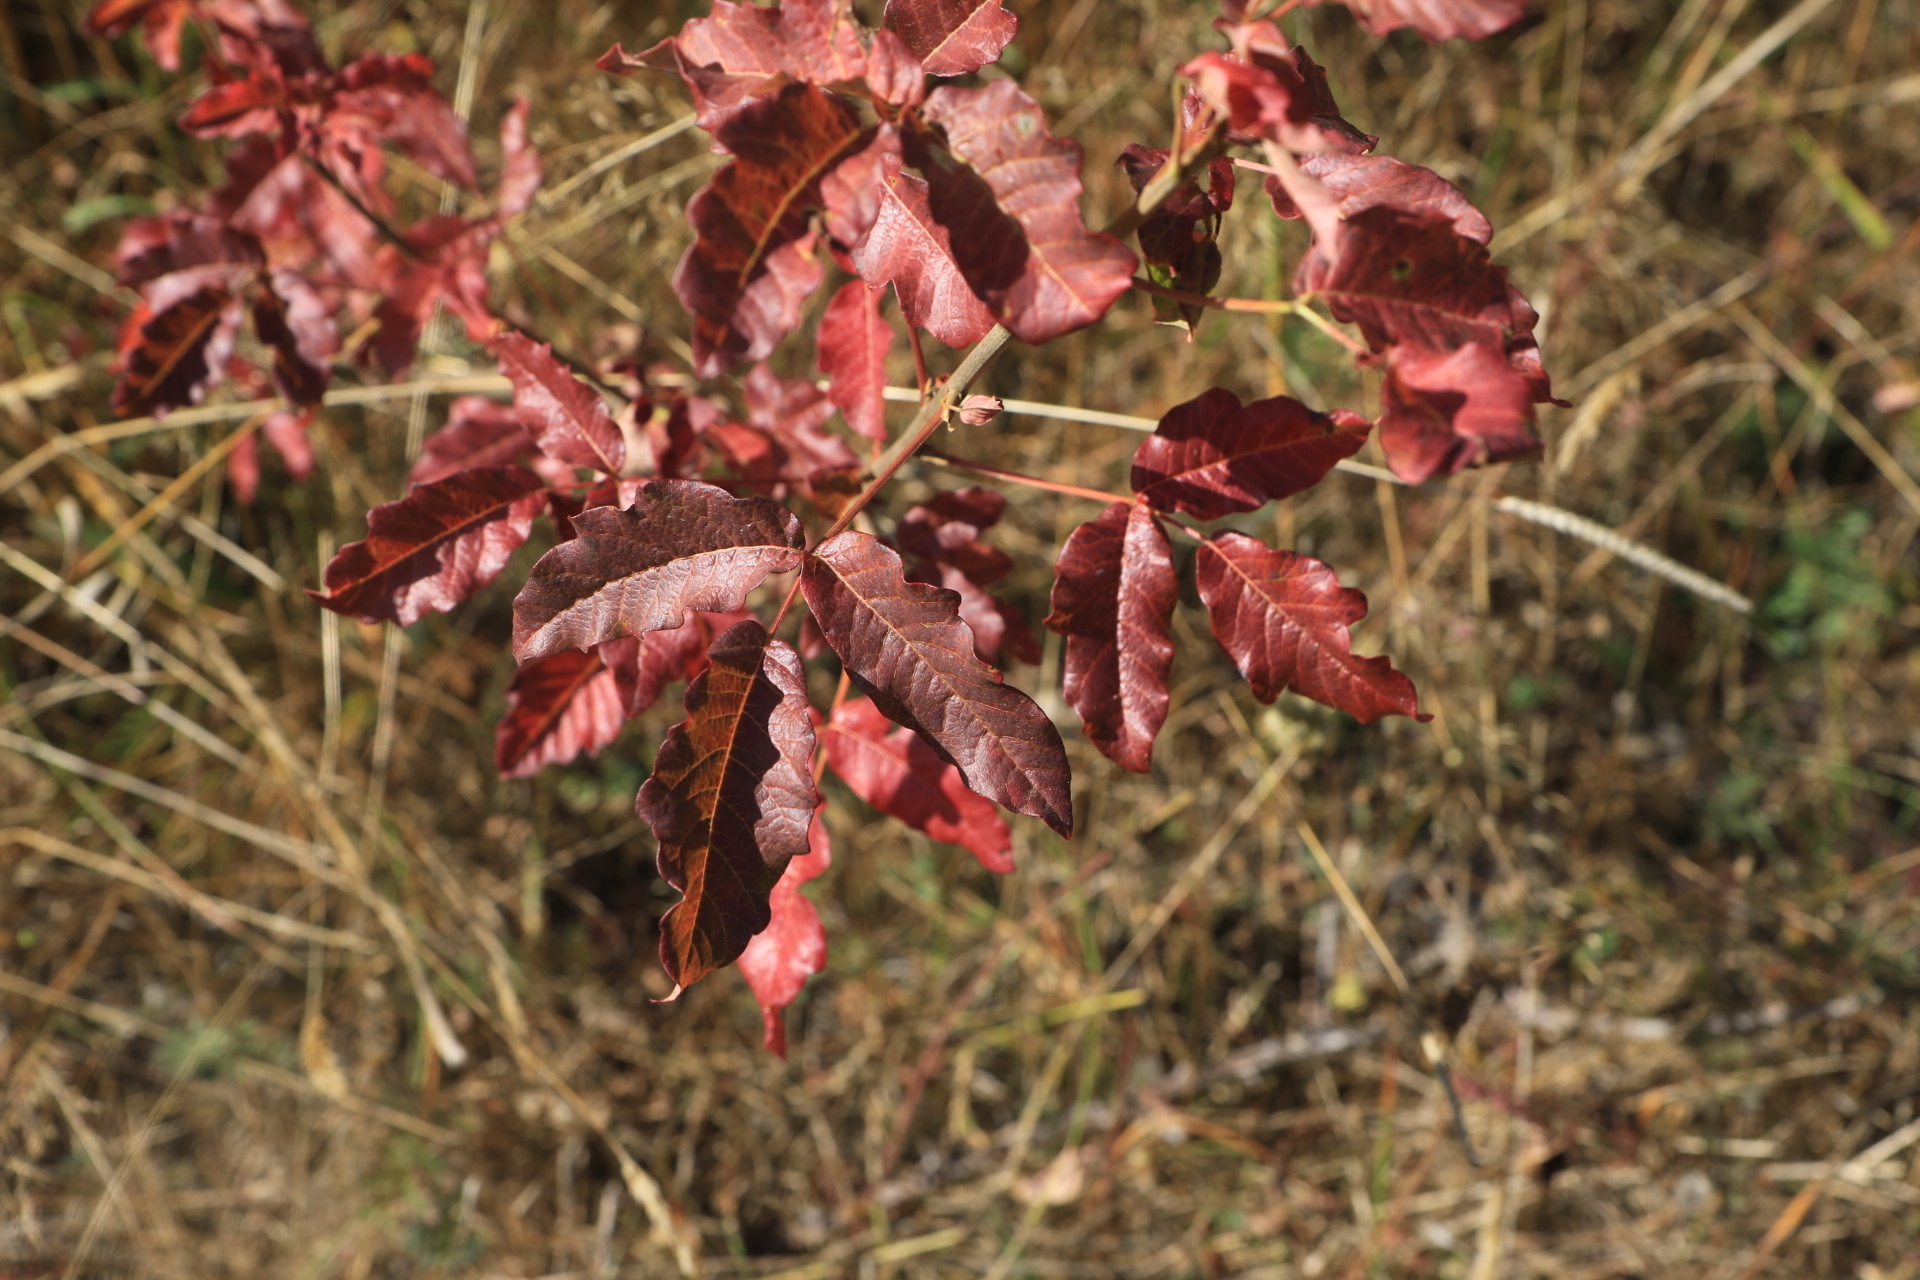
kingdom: Plantae
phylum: Tracheophyta
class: Magnoliopsida
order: Sapindales
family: Anacardiaceae
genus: Toxicodendron
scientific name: Toxicodendron diversilobum
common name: Pacific poison-oak
